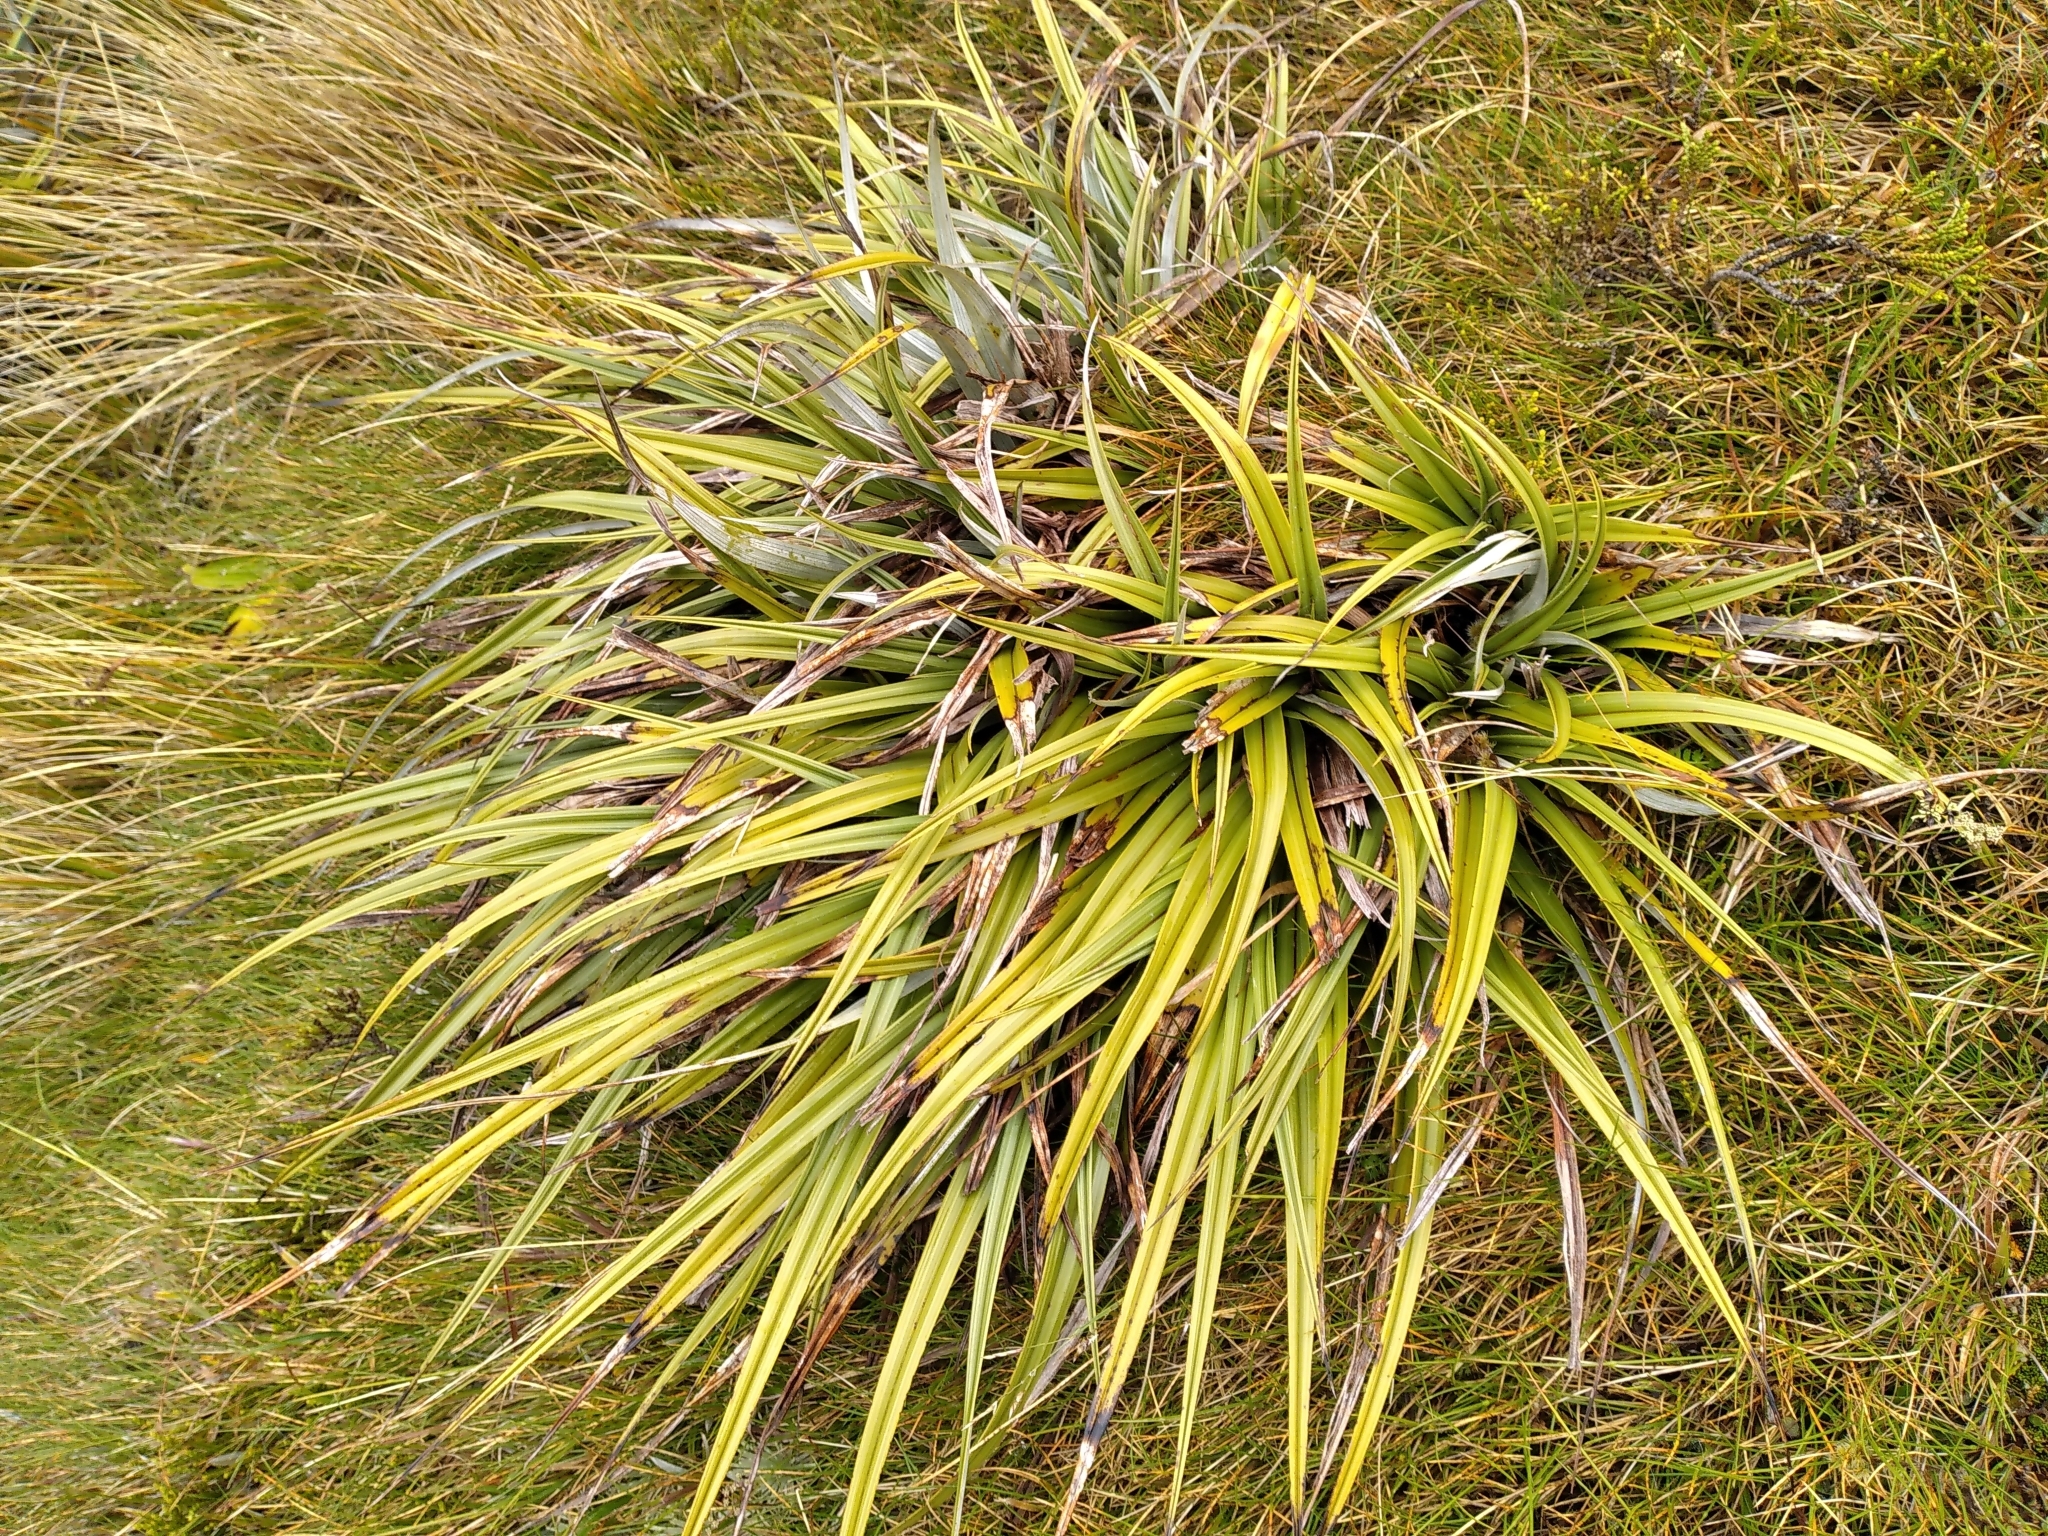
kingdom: Plantae
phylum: Tracheophyta
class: Liliopsida
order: Asparagales
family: Asteliaceae
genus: Astelia
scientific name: Astelia petriei
